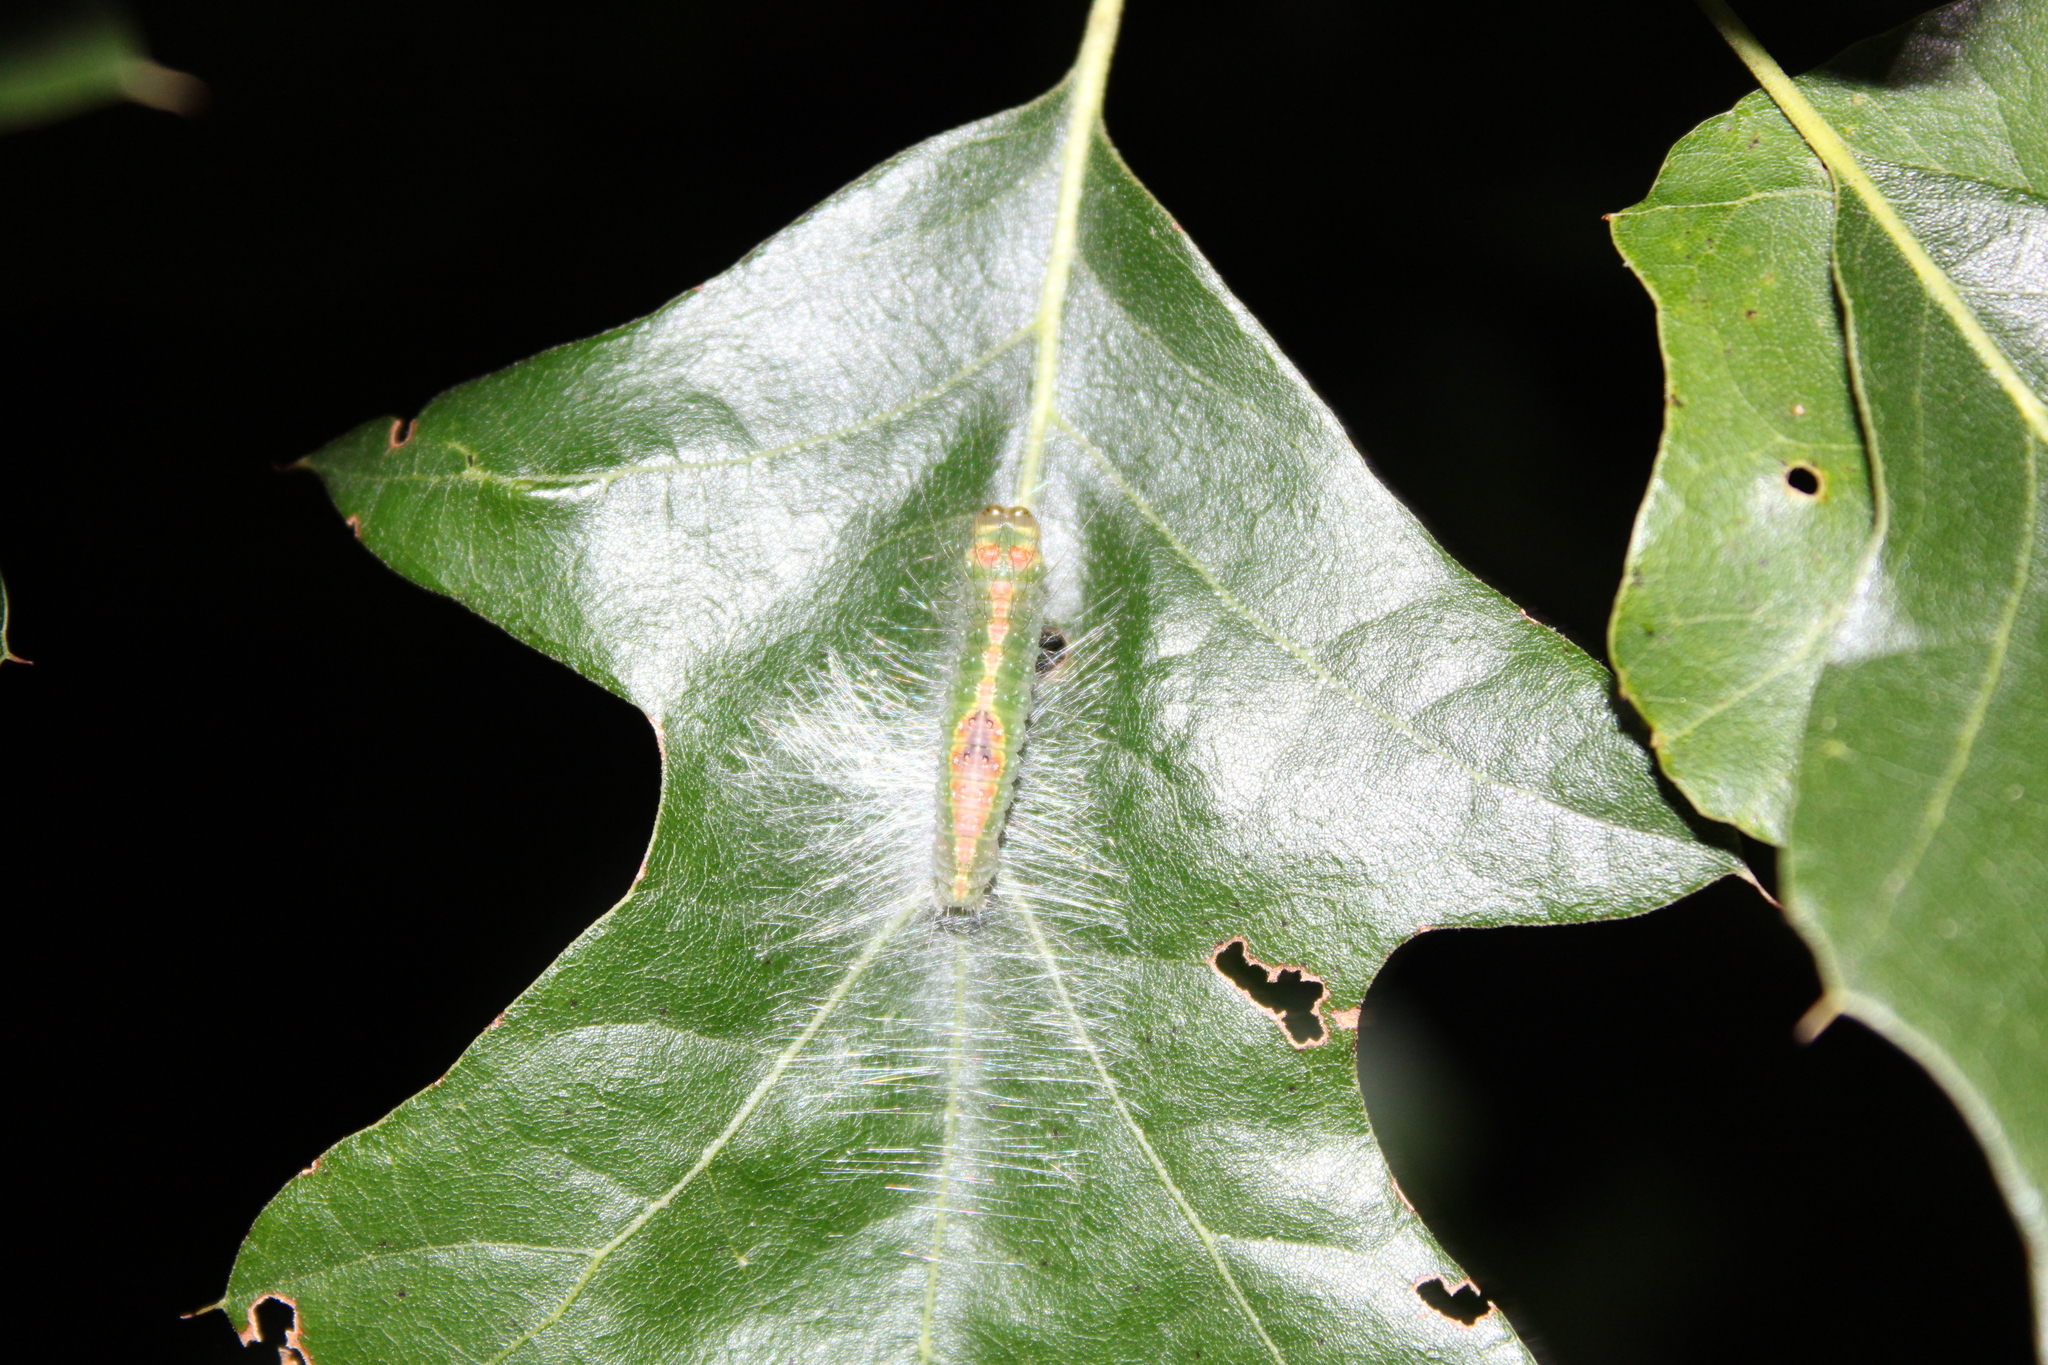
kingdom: Animalia
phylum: Arthropoda
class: Insecta
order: Lepidoptera
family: Noctuidae
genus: Acronicta
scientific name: Acronicta lithospila
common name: Streaked dagger
